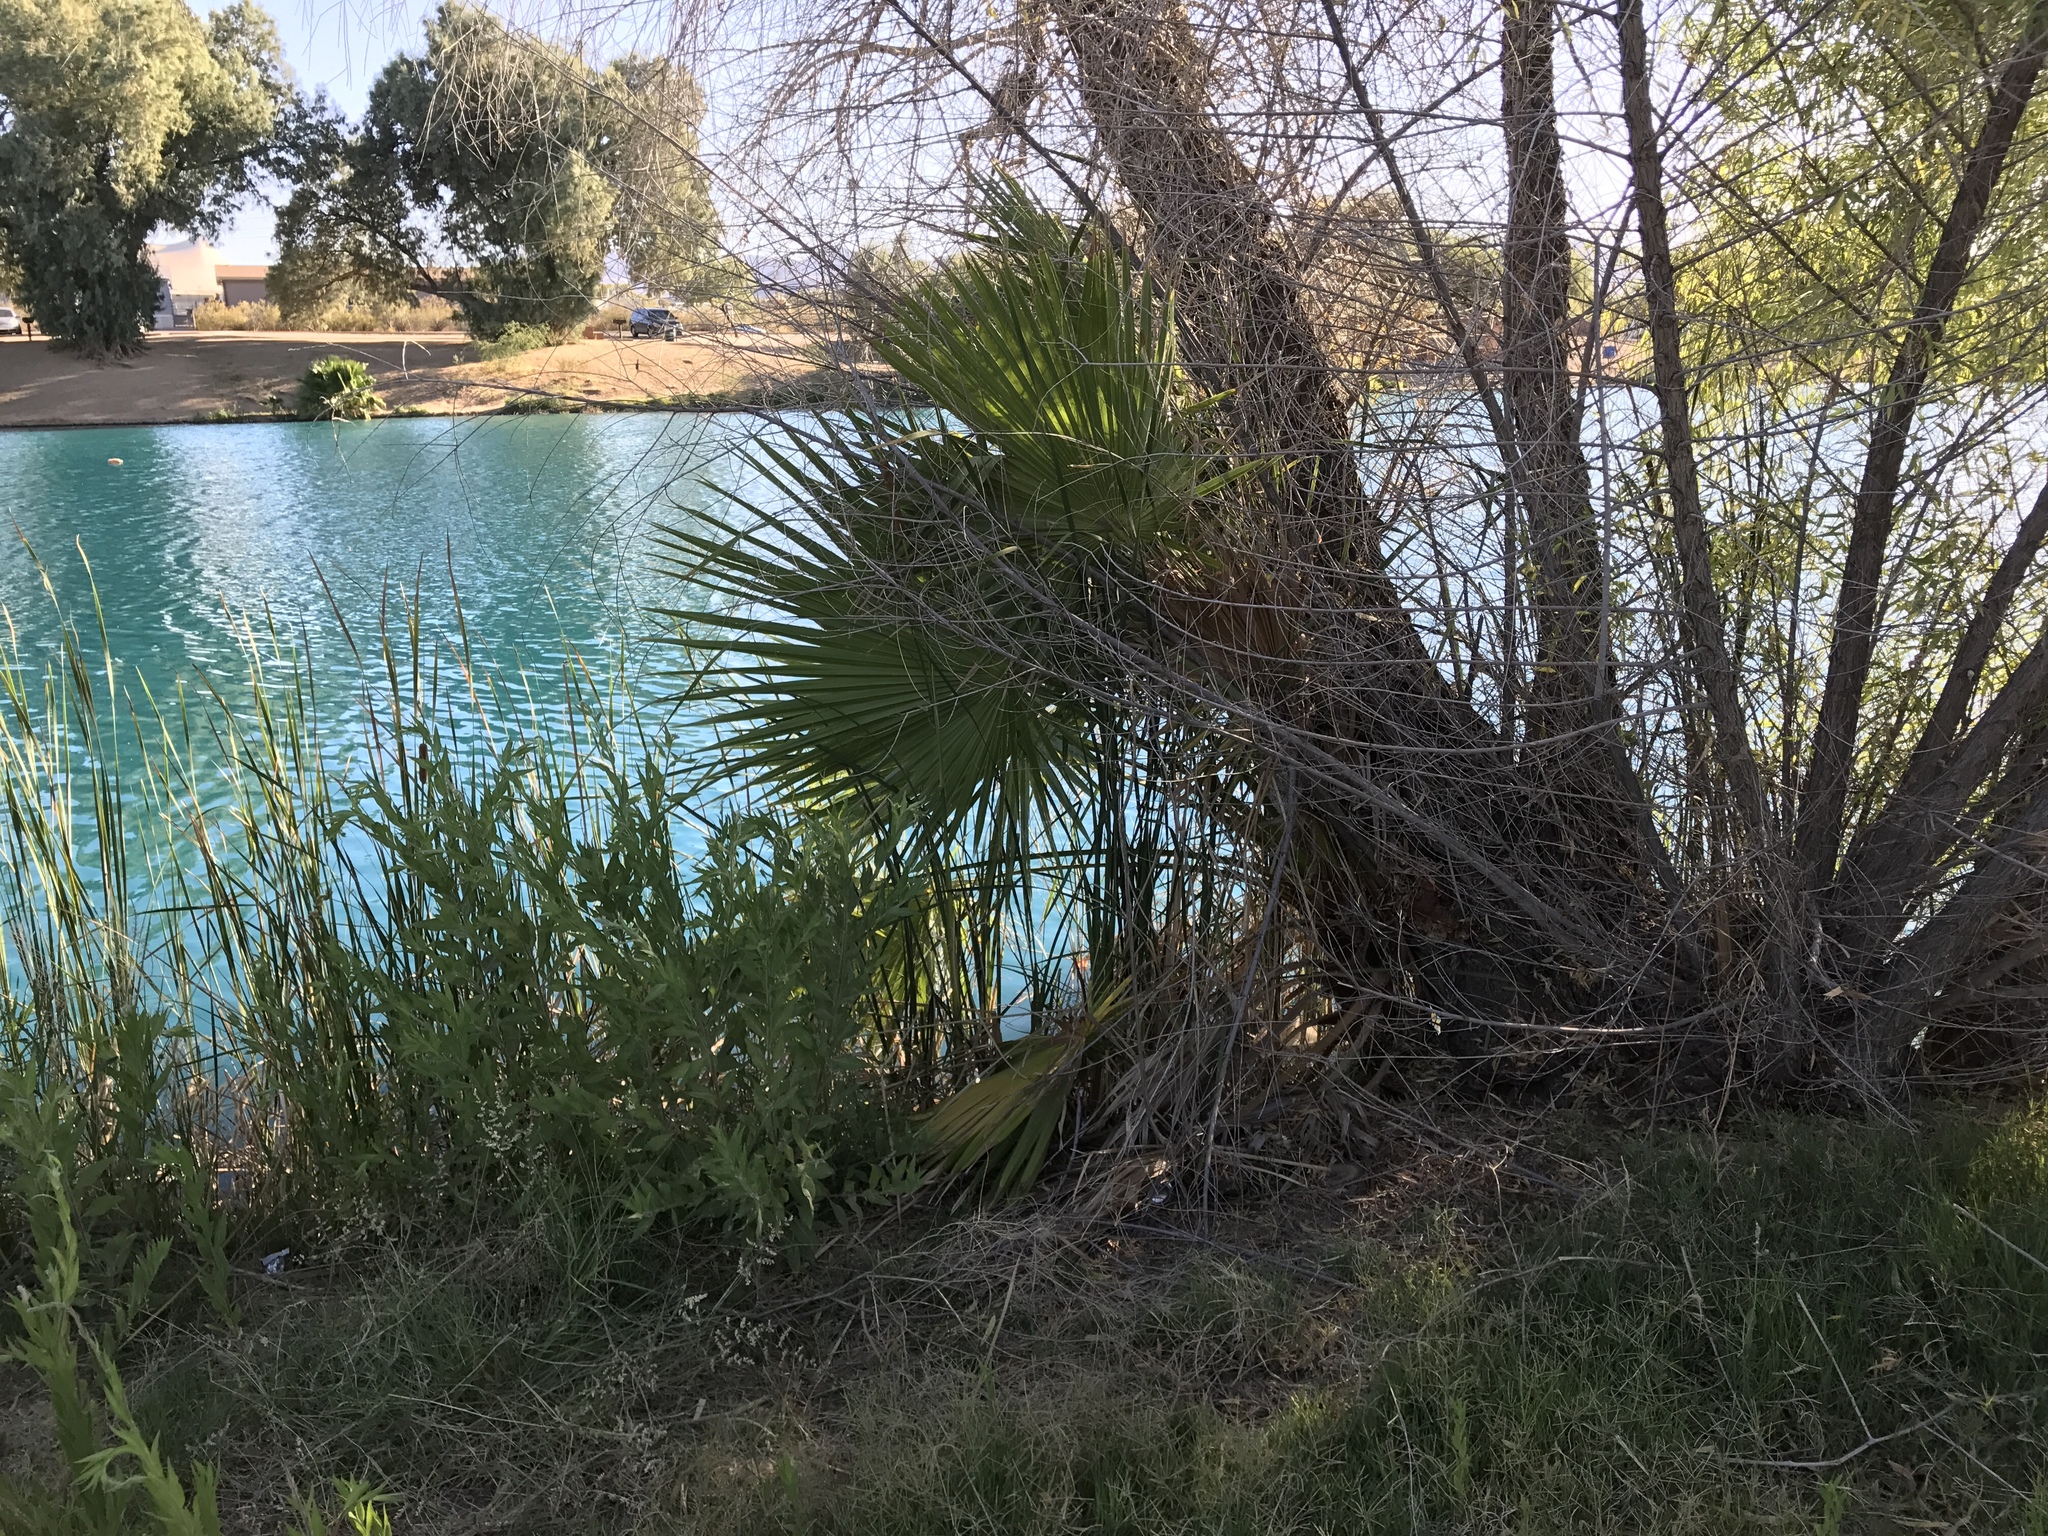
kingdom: Plantae
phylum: Tracheophyta
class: Liliopsida
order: Arecales
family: Arecaceae
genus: Washingtonia
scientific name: Washingtonia filifera
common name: California fan palm
